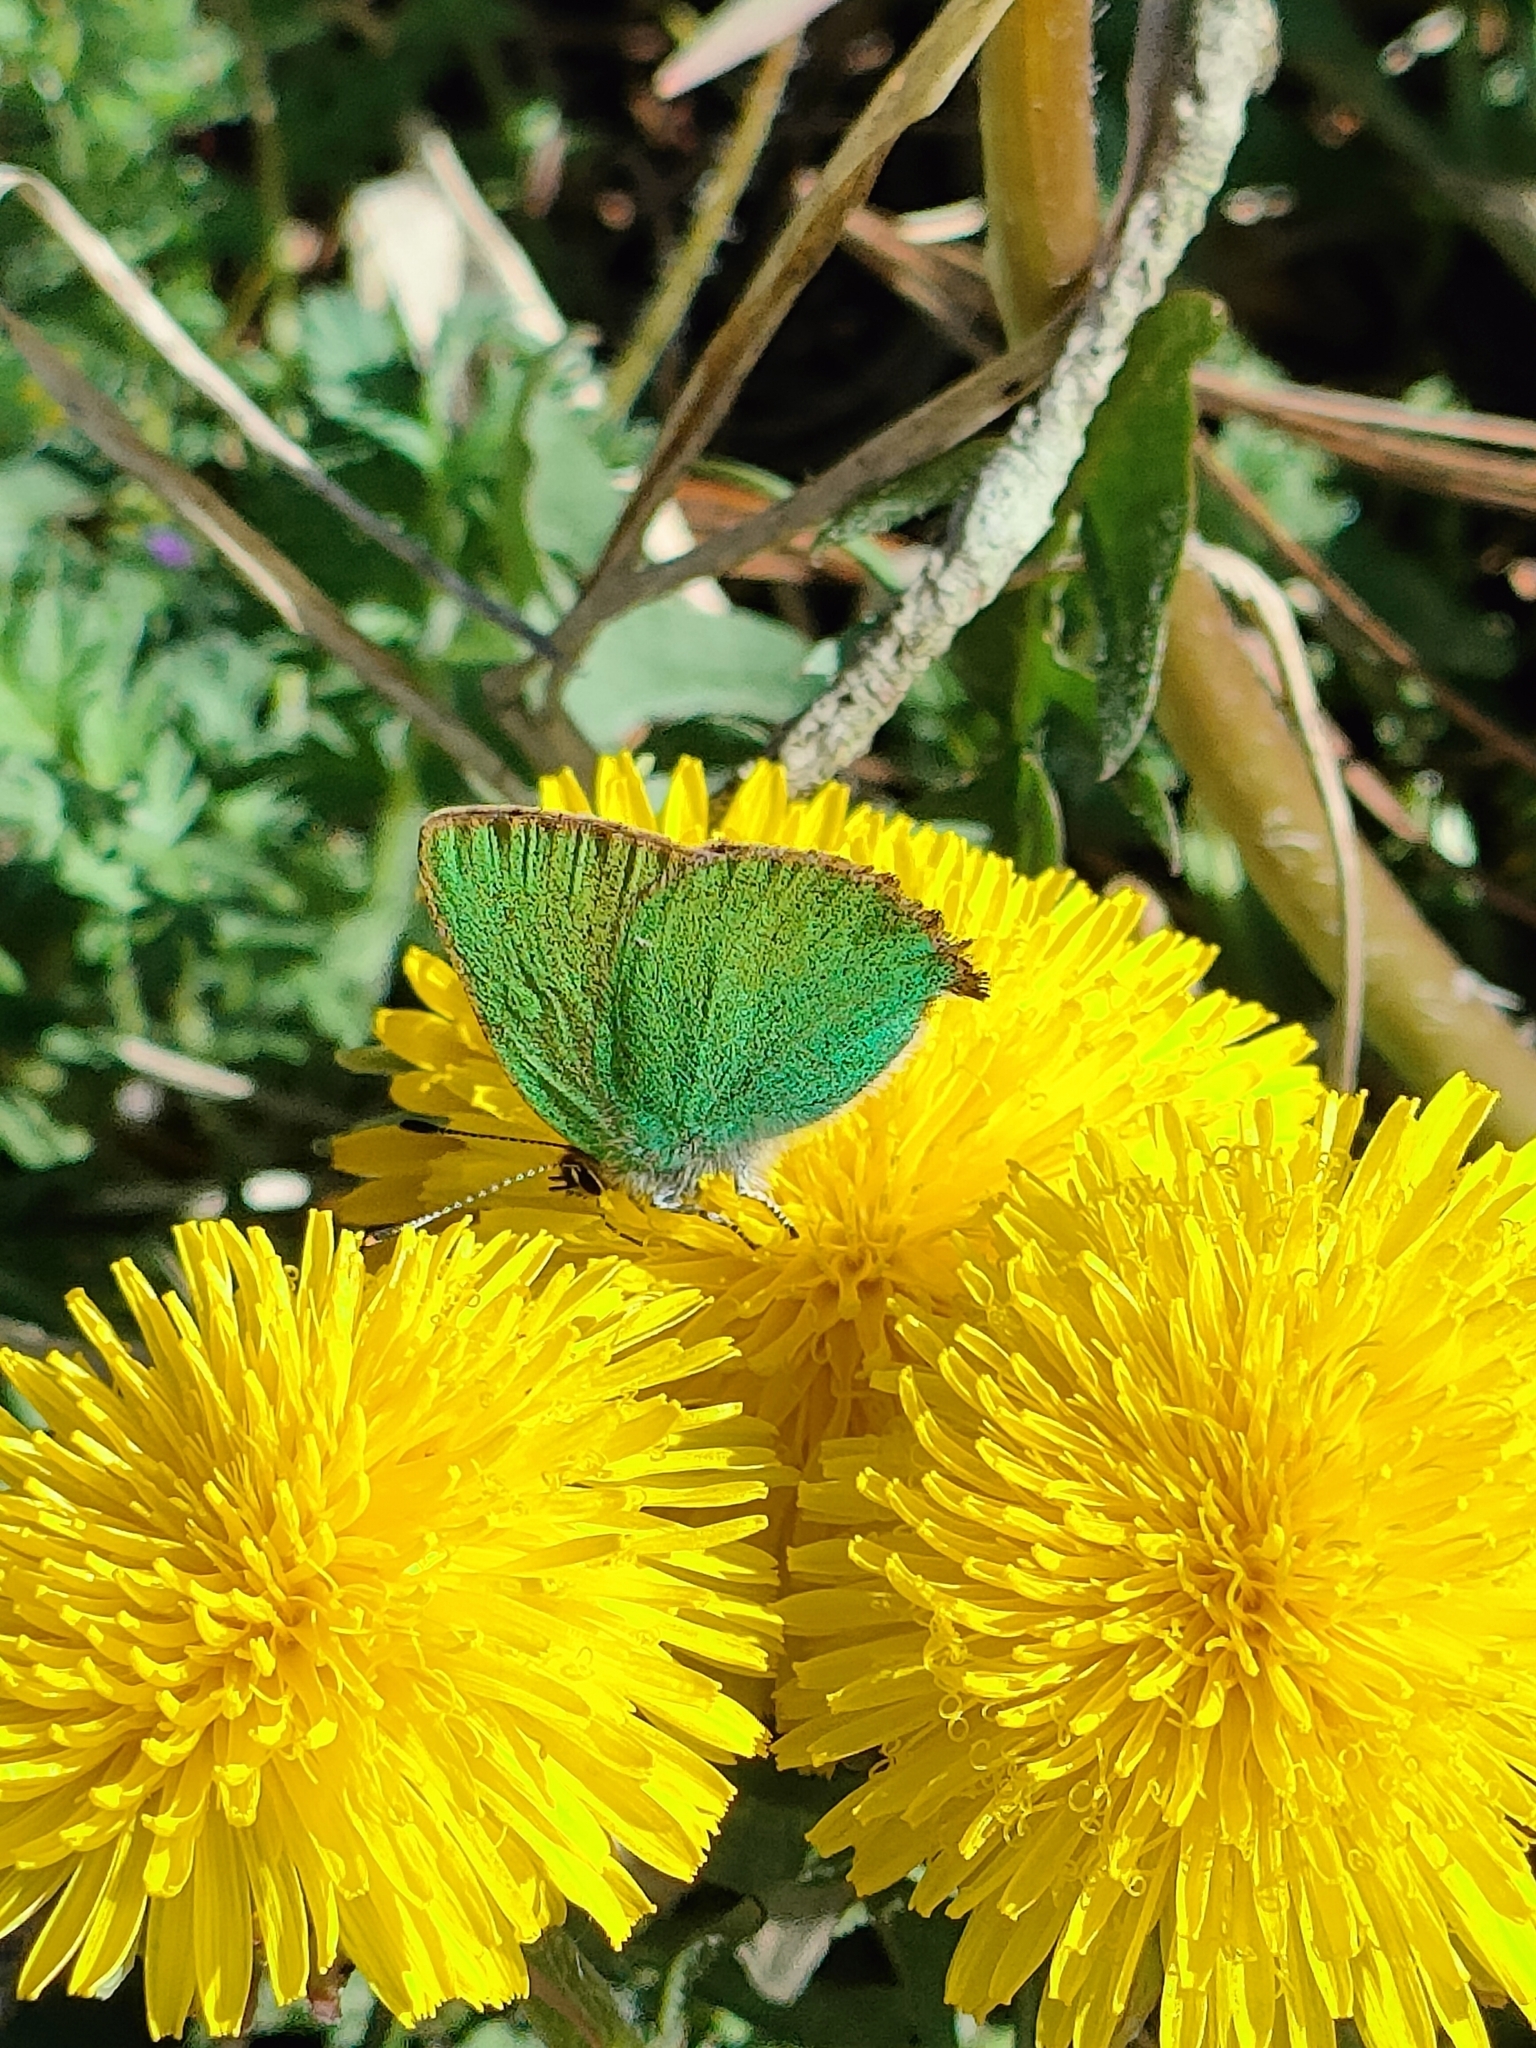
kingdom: Animalia
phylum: Arthropoda
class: Insecta
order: Lepidoptera
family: Lycaenidae
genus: Callophrys
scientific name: Callophrys rubi
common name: Green hairstreak
